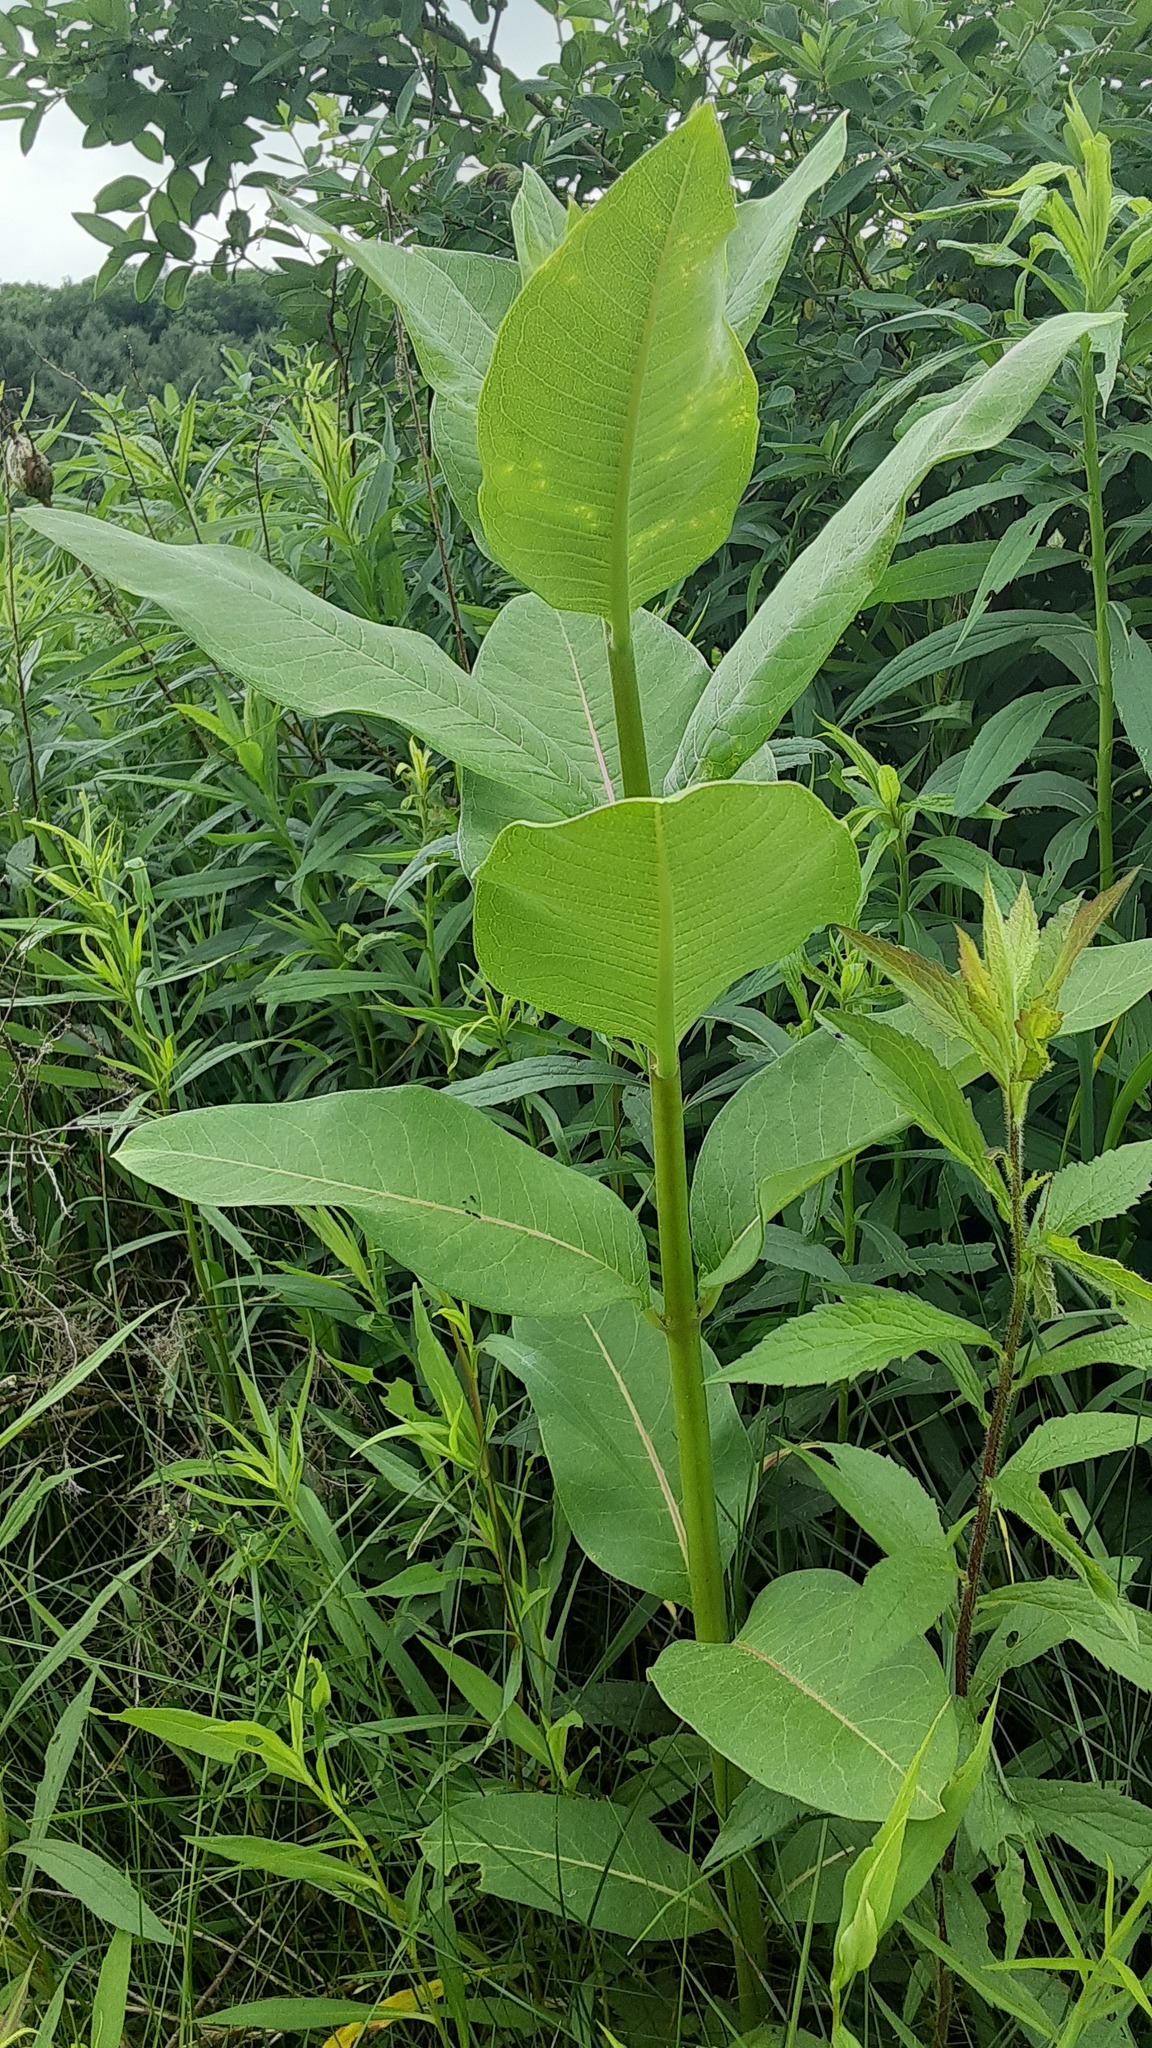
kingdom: Plantae
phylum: Tracheophyta
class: Magnoliopsida
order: Gentianales
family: Apocynaceae
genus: Asclepias
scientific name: Asclepias syriaca
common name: Common milkweed
